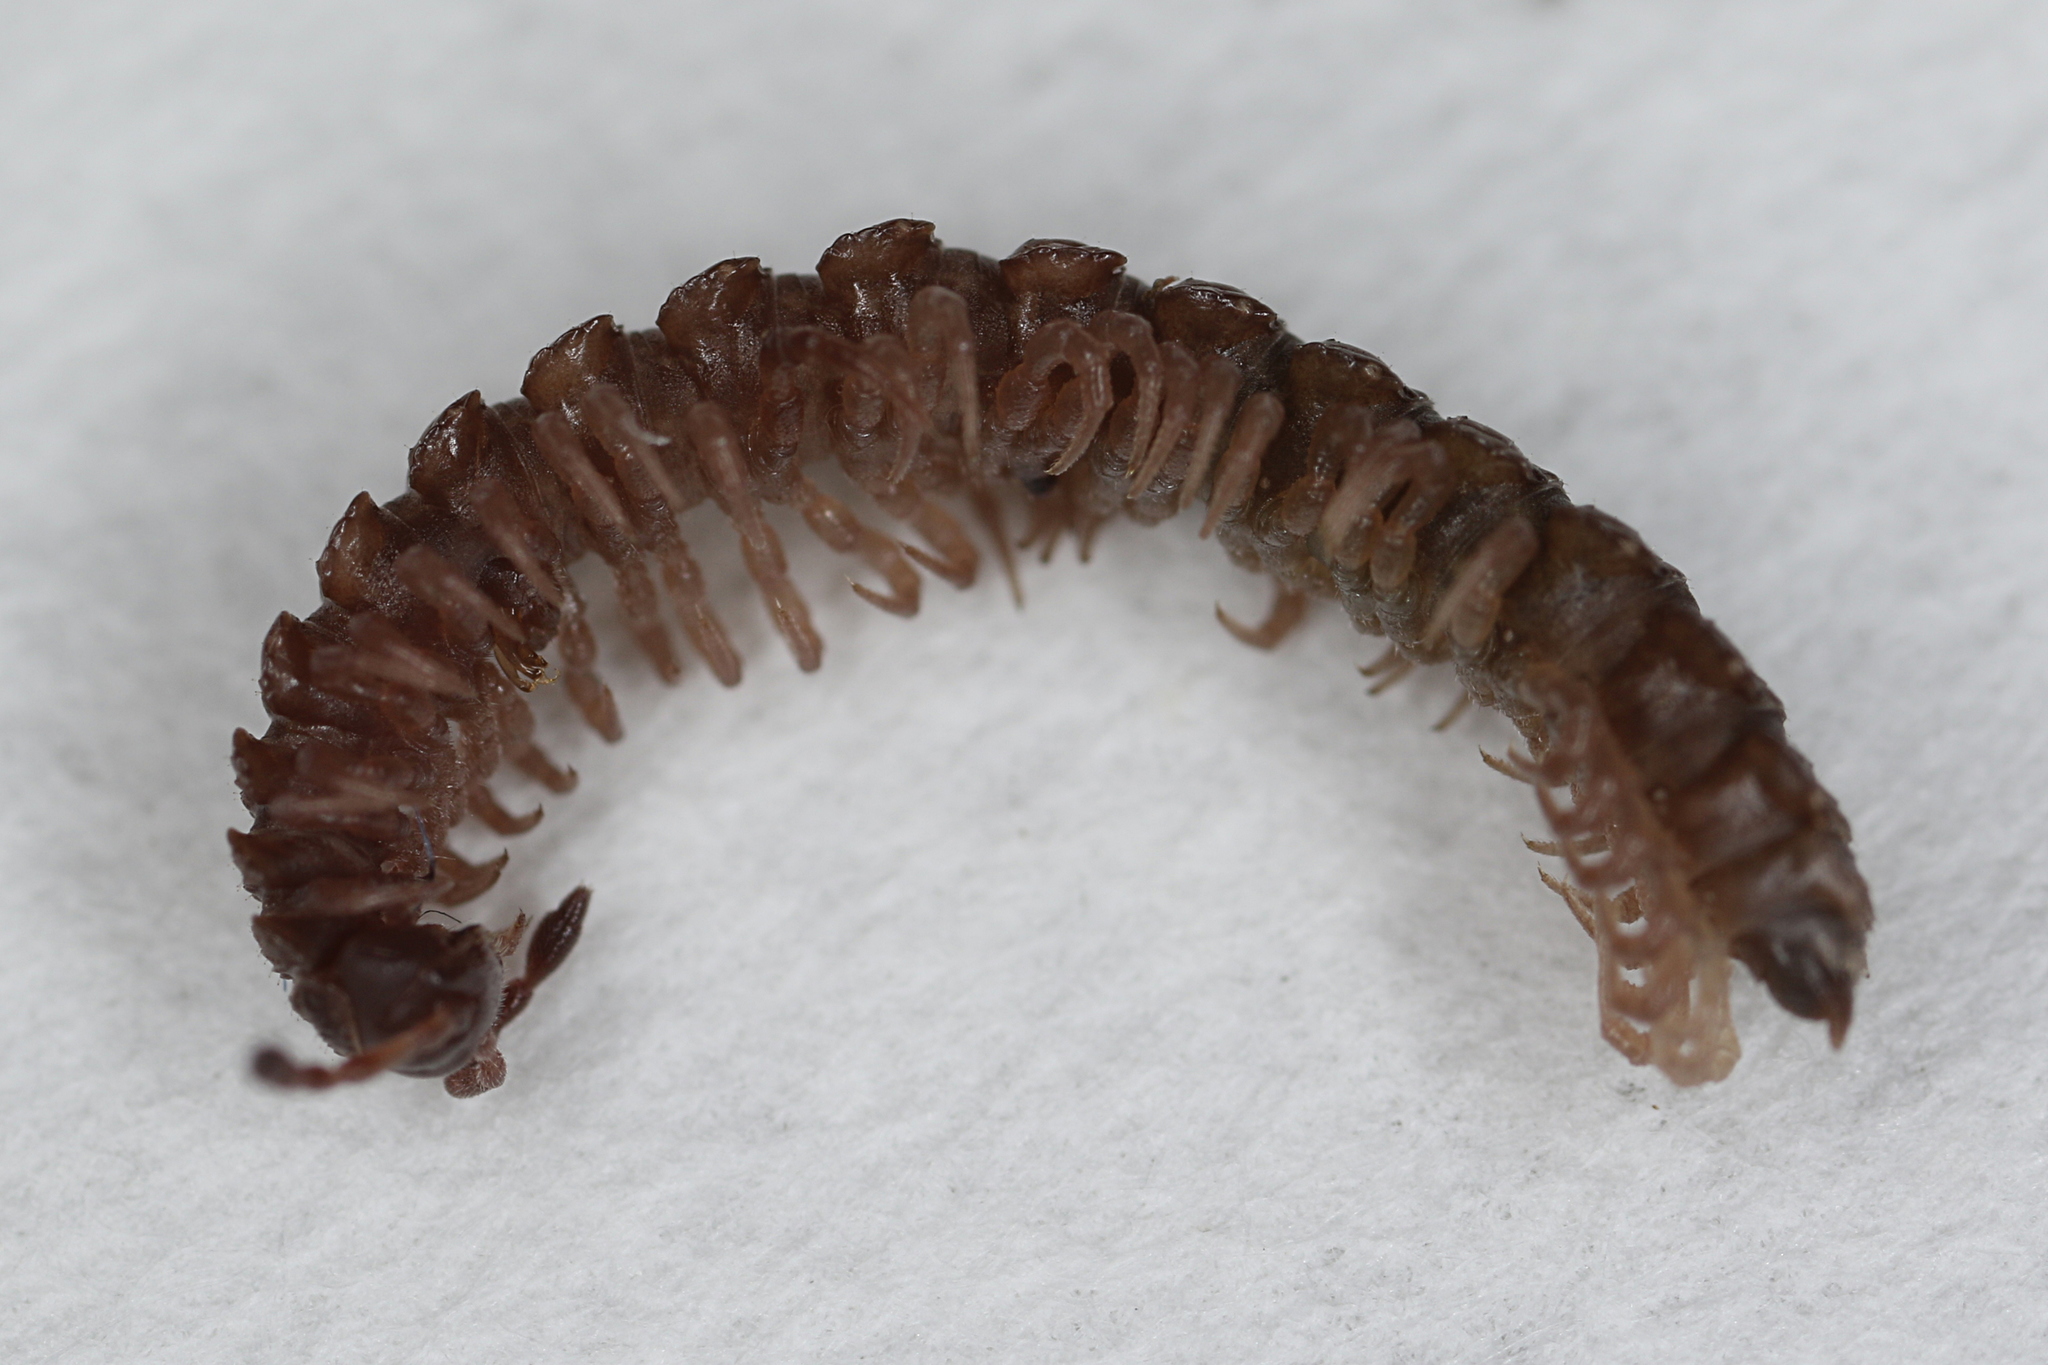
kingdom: Animalia
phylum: Arthropoda
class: Diplopoda
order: Polydesmida
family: Polydesmidae
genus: Polydesmus
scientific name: Polydesmus inconstans
